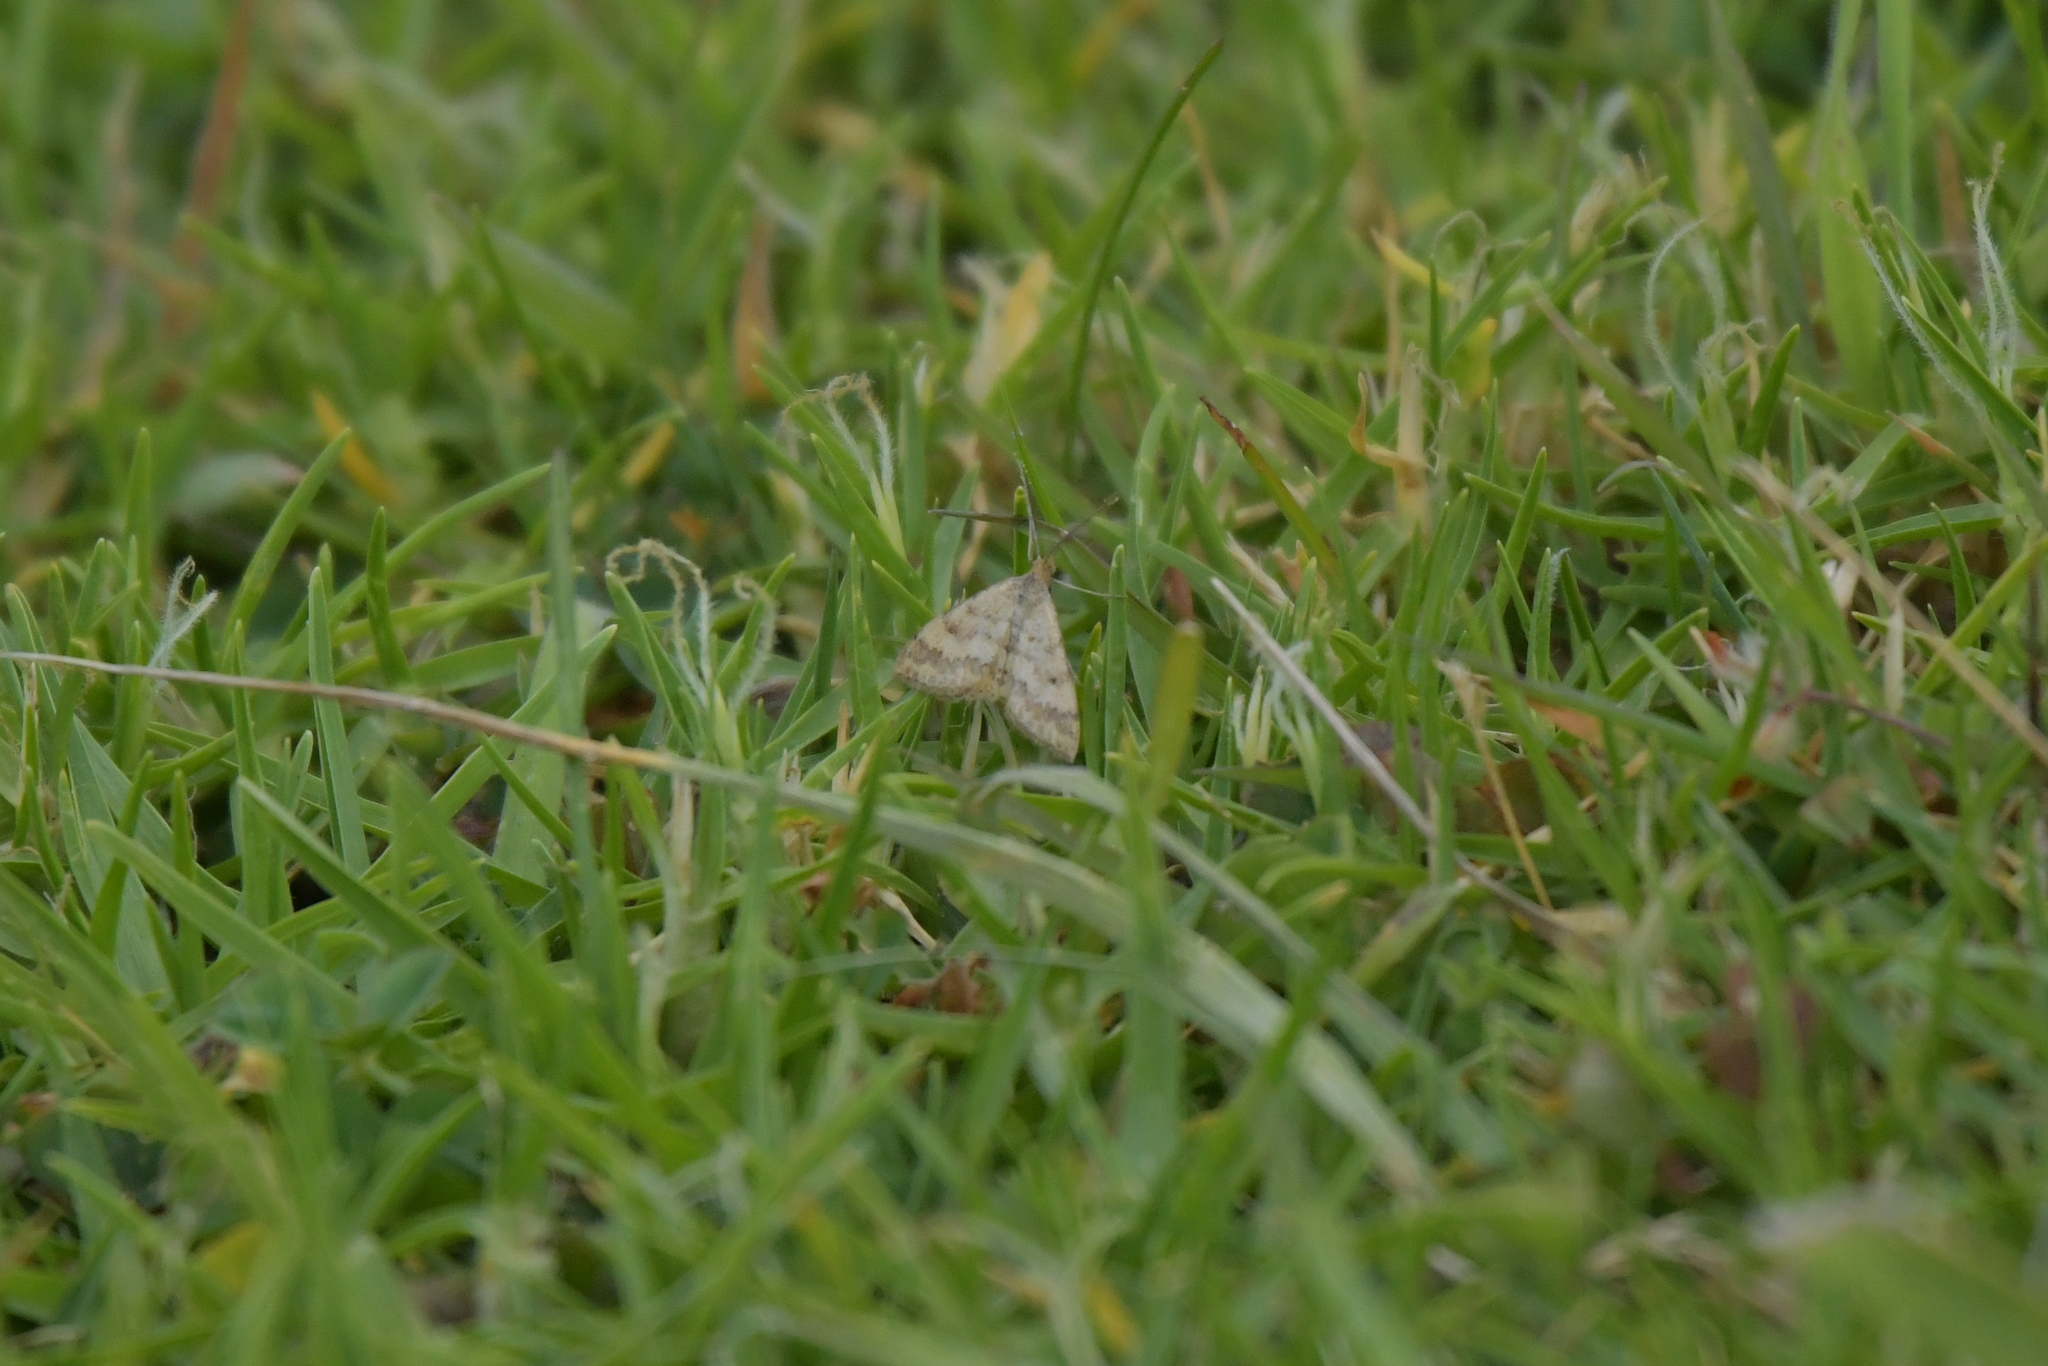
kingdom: Animalia
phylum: Arthropoda
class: Insecta
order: Lepidoptera
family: Geometridae
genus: Scopula
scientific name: Scopula rubraria
